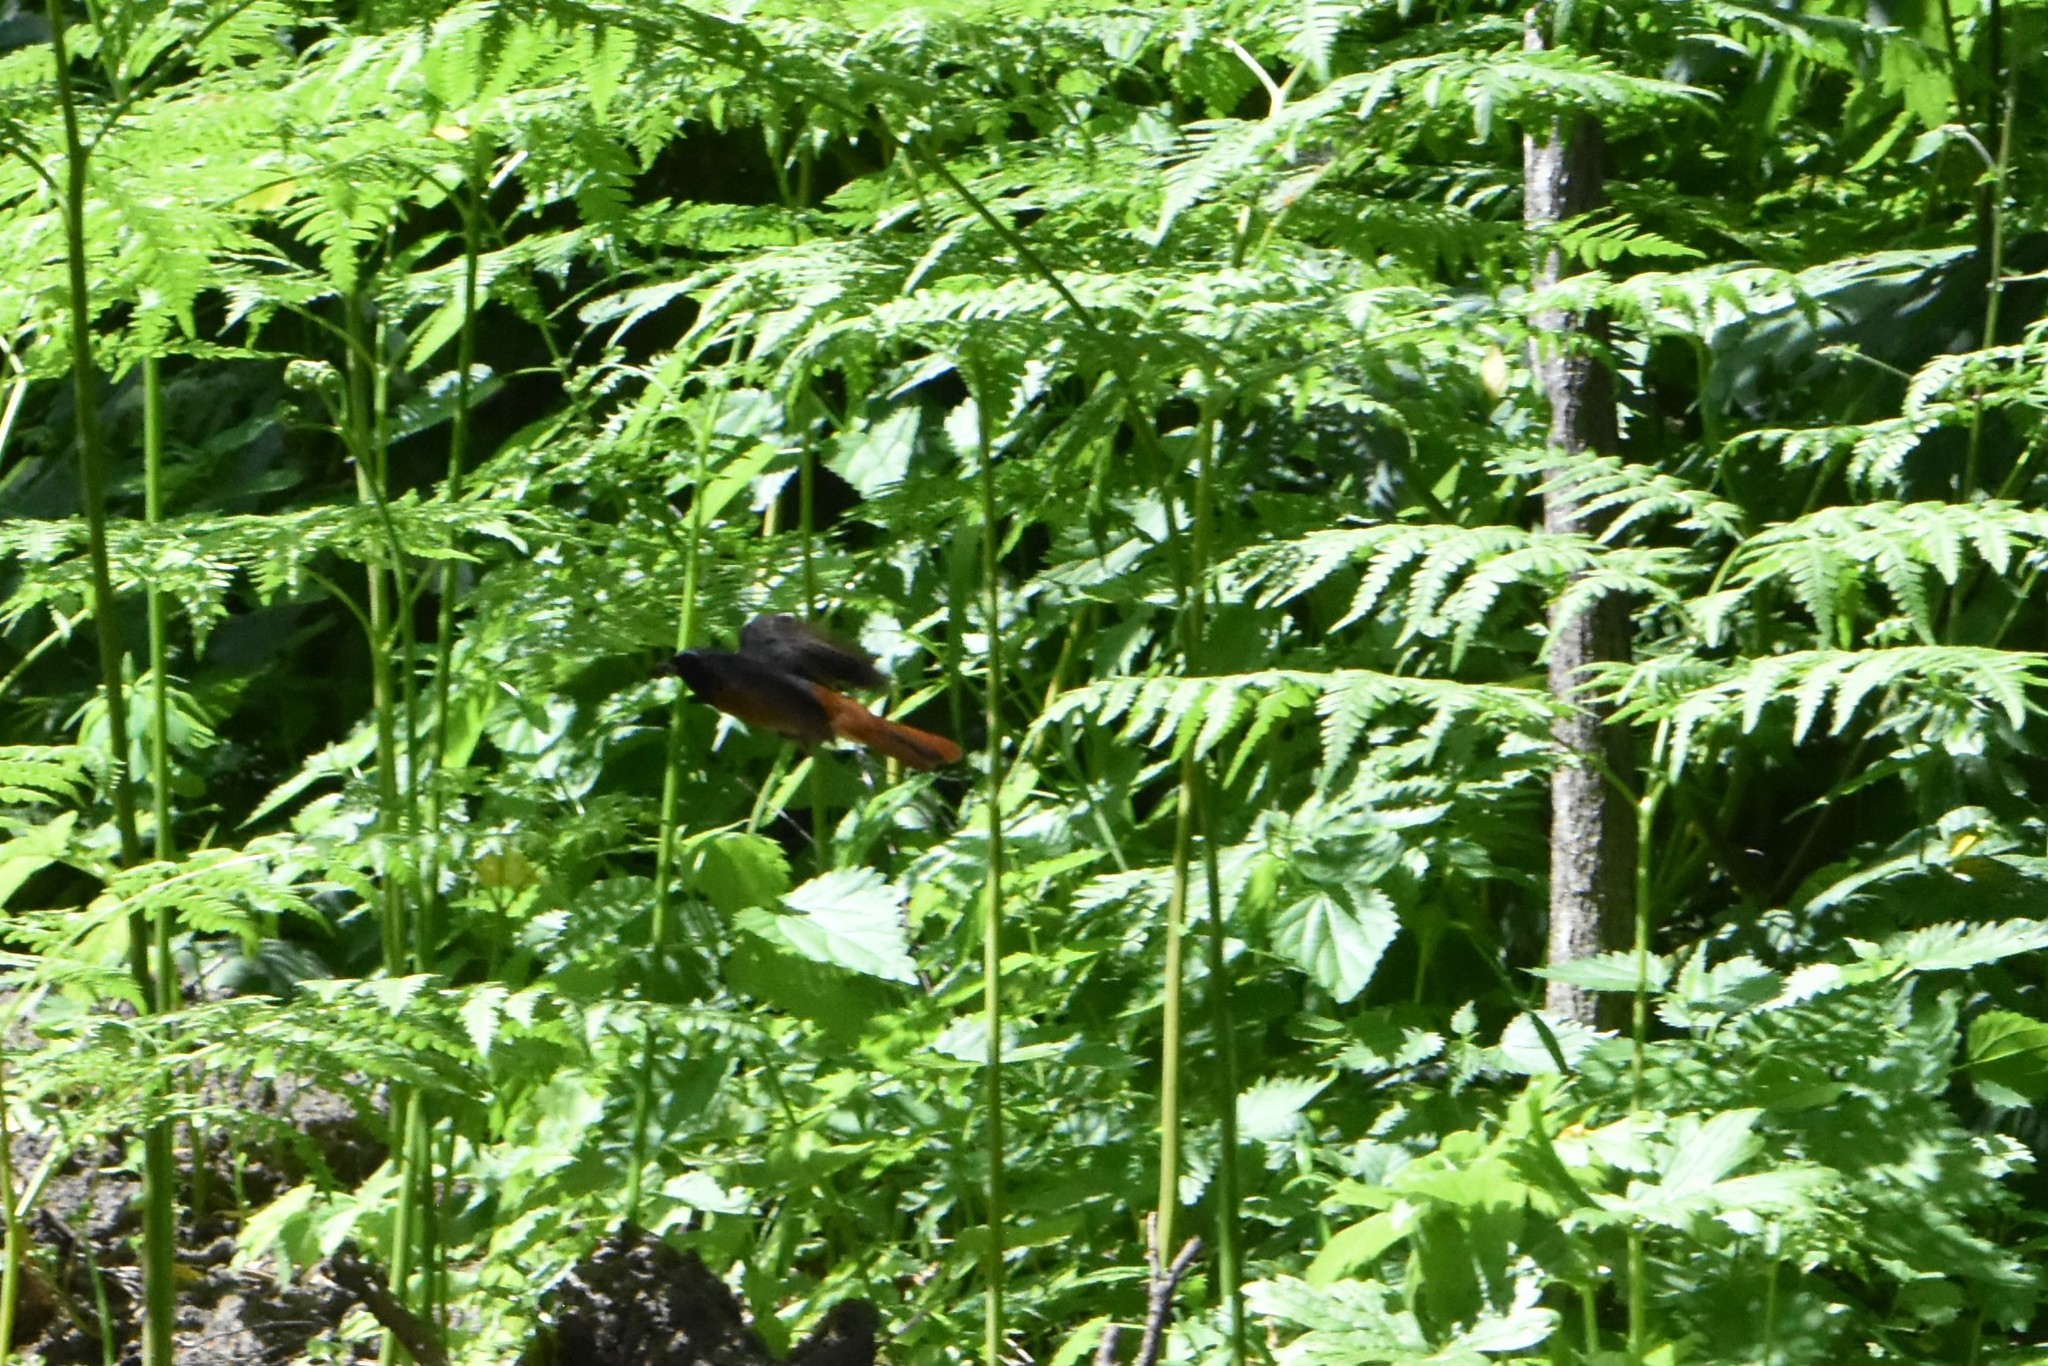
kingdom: Animalia
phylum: Chordata
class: Aves
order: Passeriformes
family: Muscicapidae
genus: Phoenicurus
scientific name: Phoenicurus phoenicurus
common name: Common redstart
